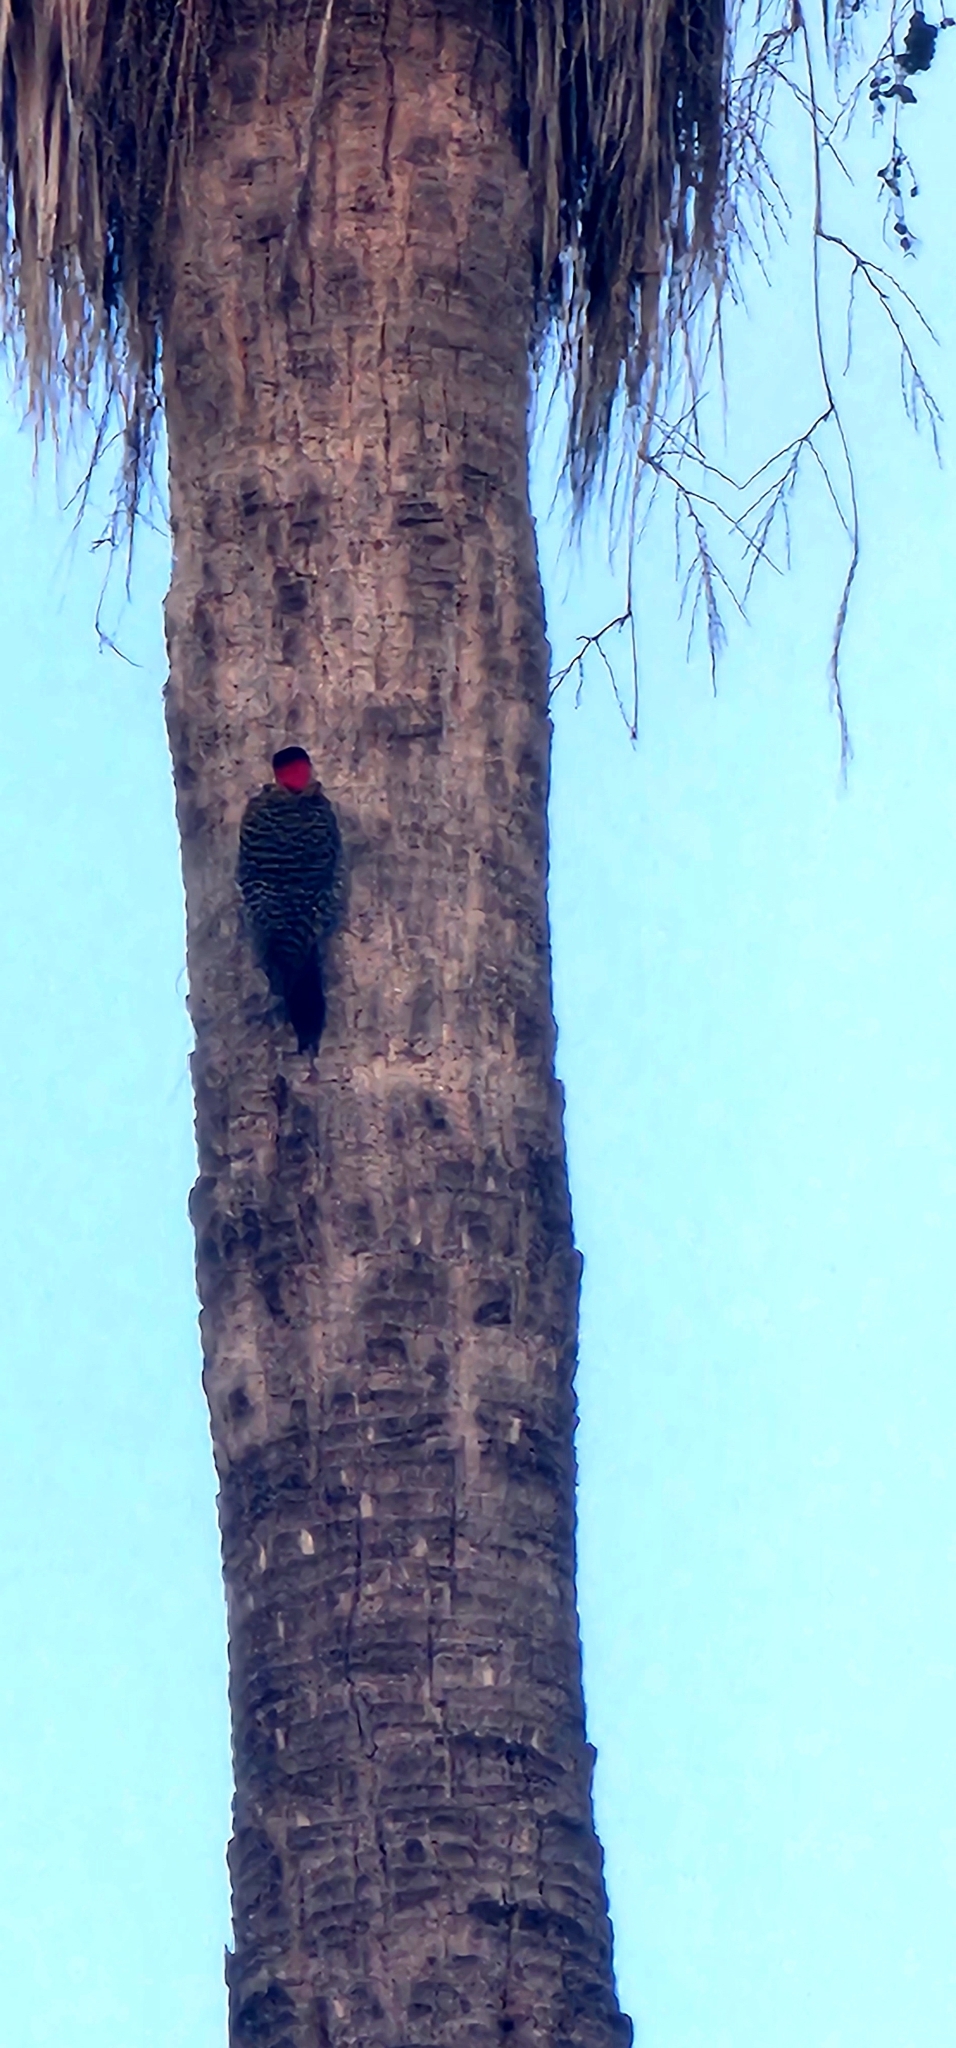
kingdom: Animalia
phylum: Chordata
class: Aves
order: Piciformes
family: Picidae
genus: Colaptes
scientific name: Colaptes melanochloros
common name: Green-barred woodpecker
